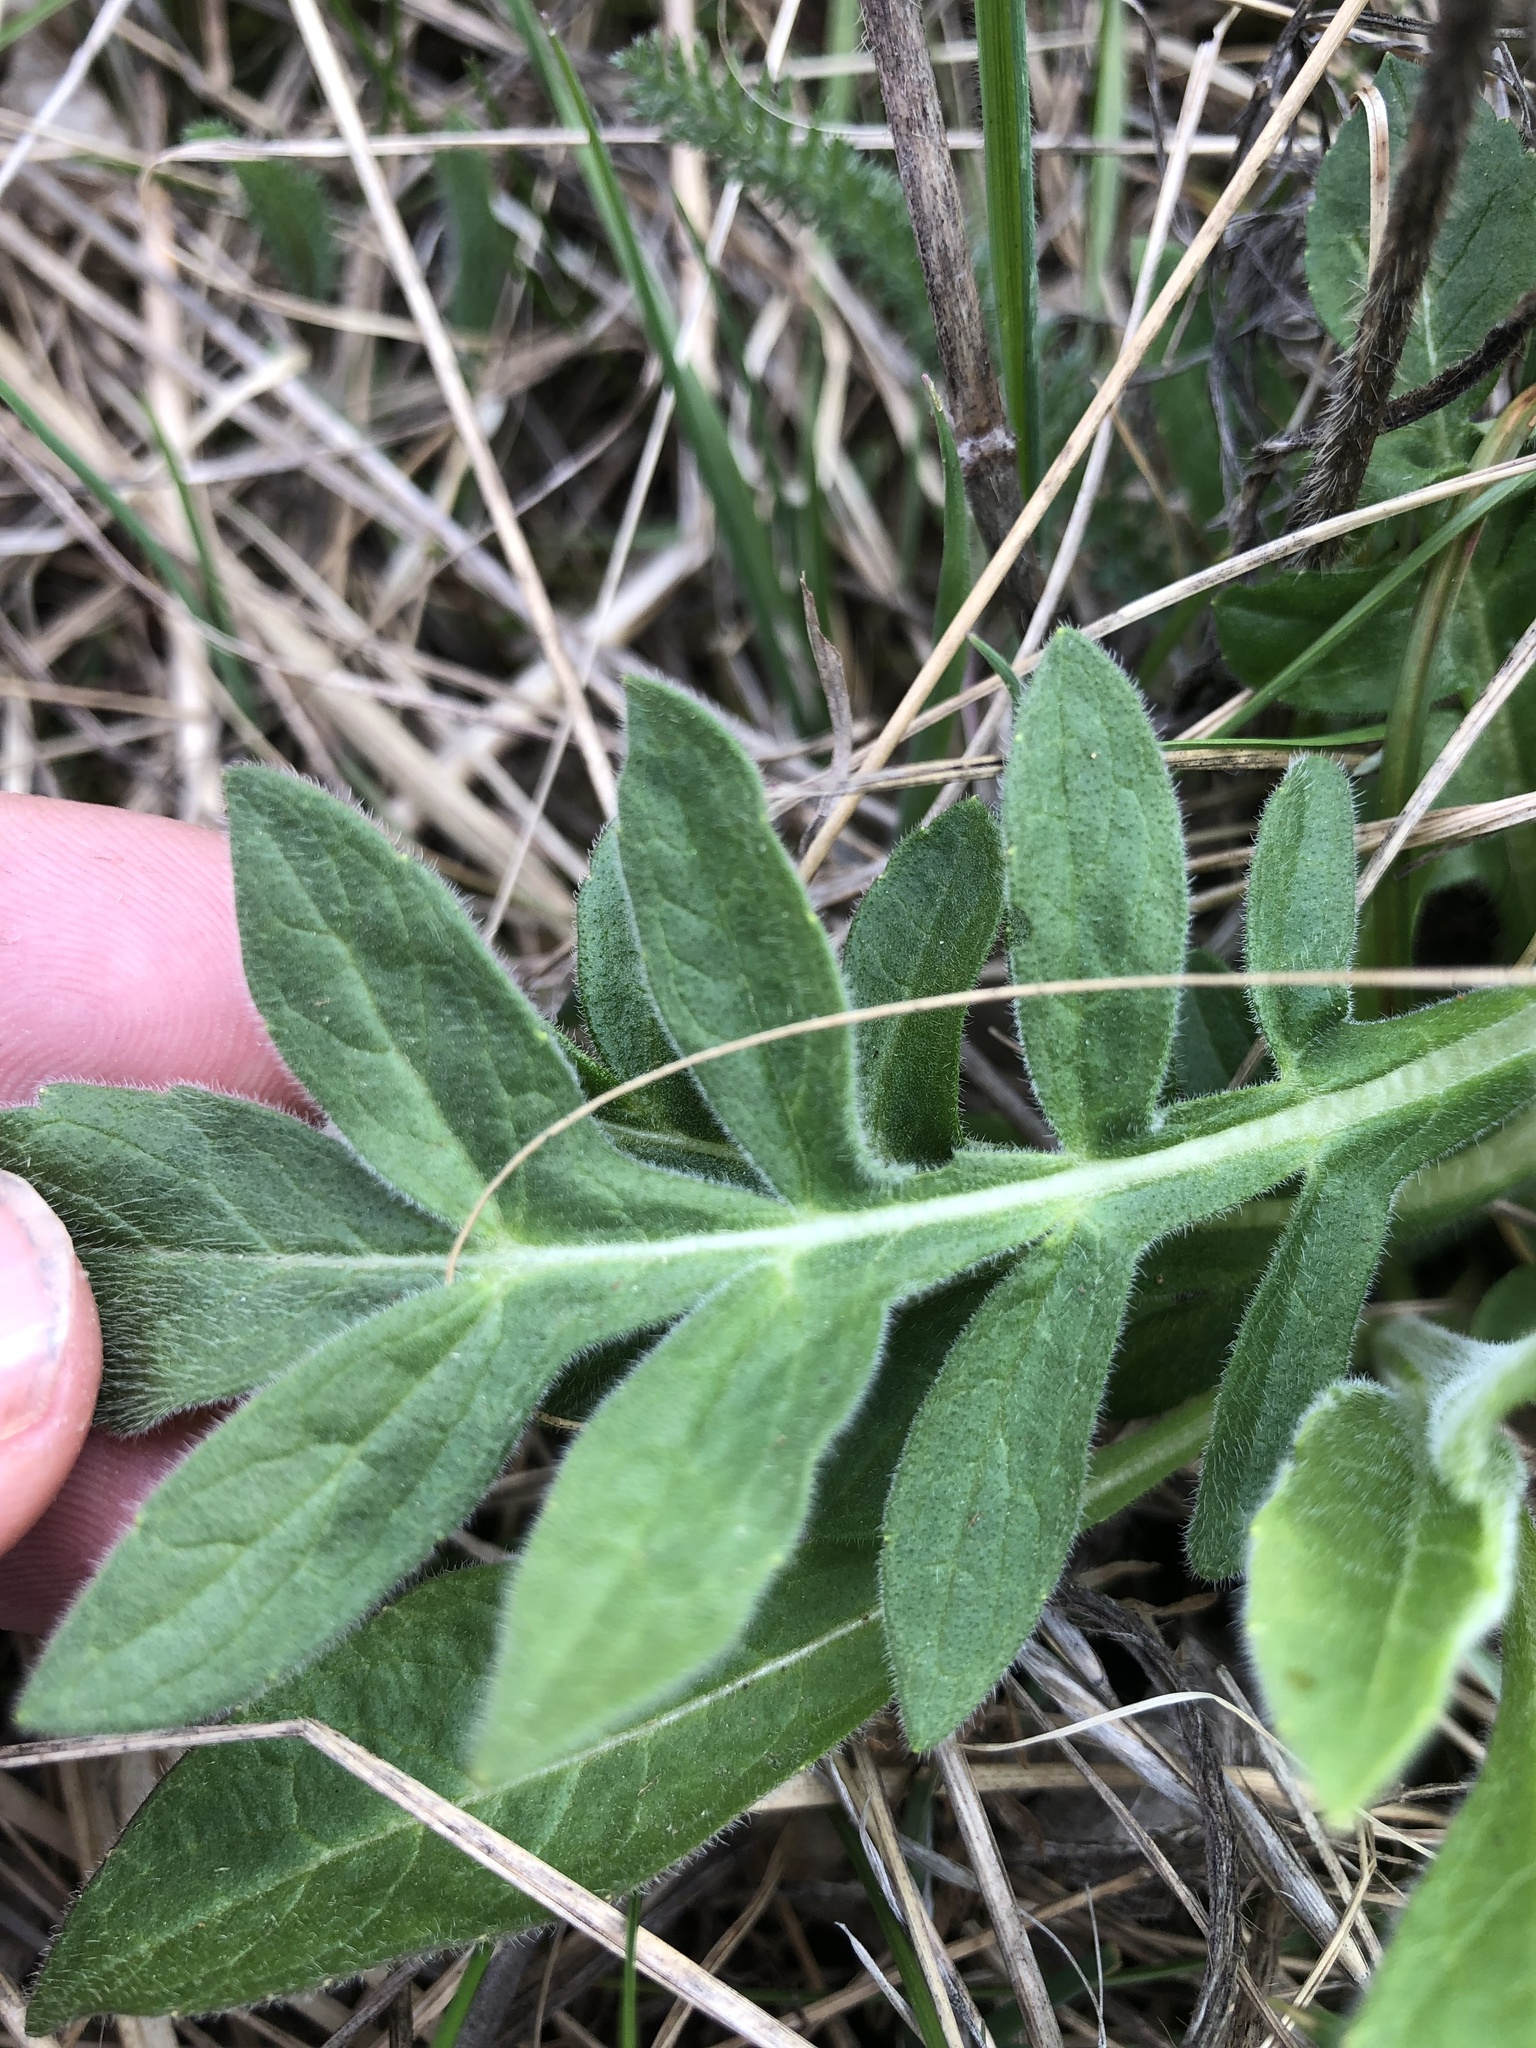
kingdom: Plantae
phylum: Tracheophyta
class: Magnoliopsida
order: Dipsacales
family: Caprifoliaceae
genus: Knautia
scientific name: Knautia arvensis
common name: Field scabiosa
